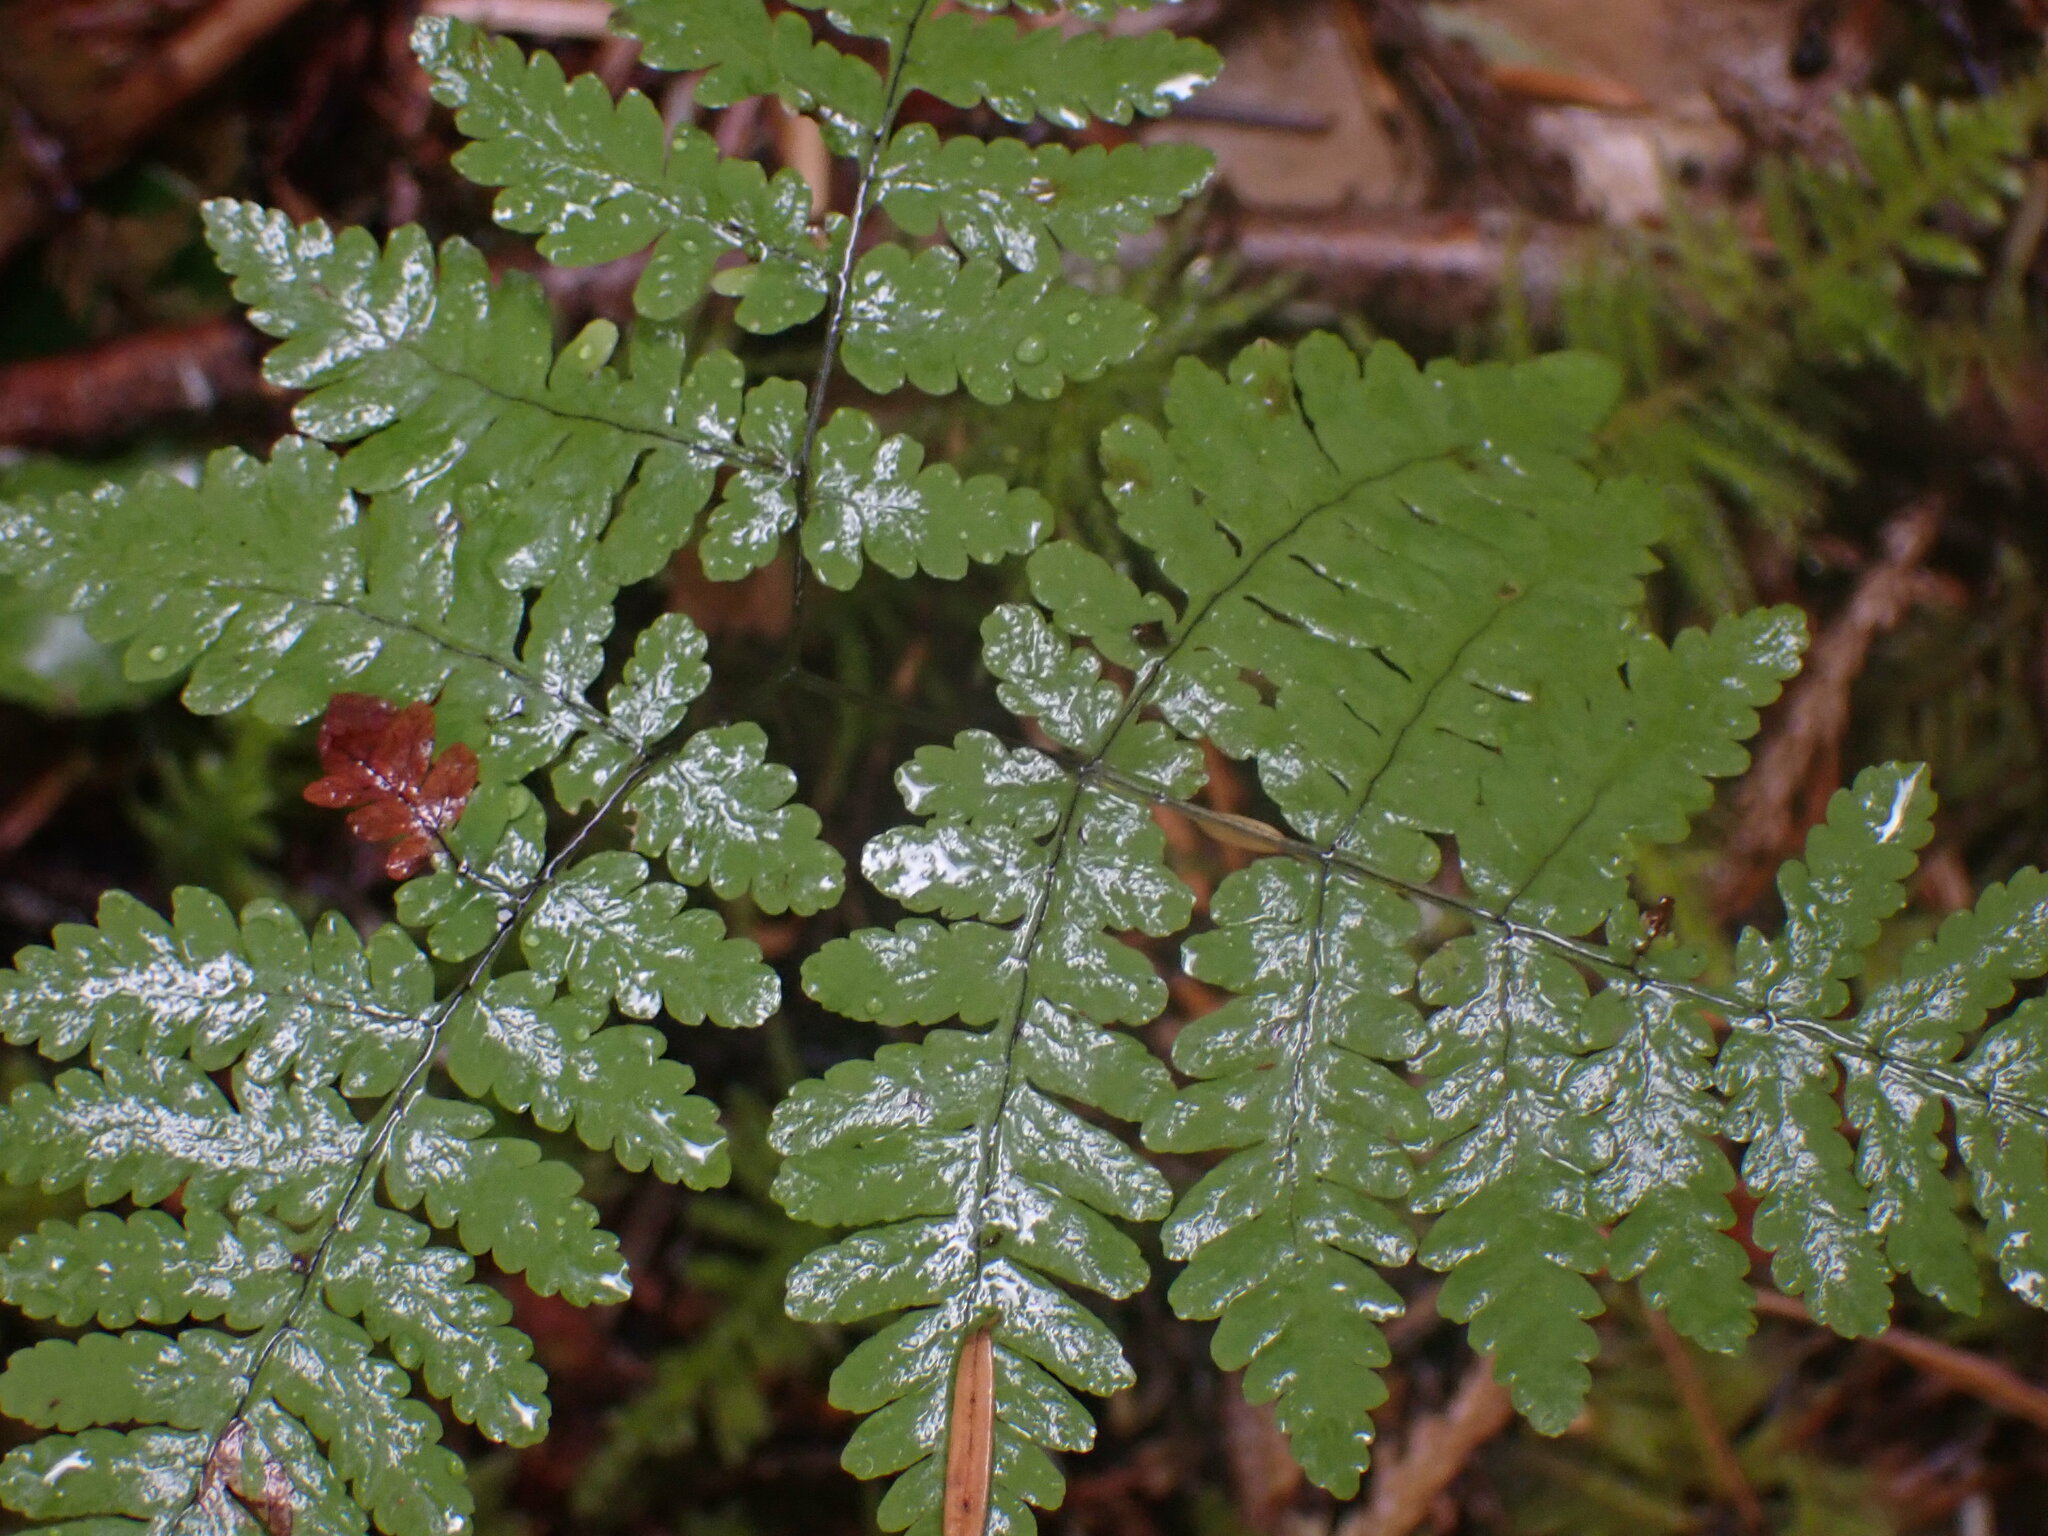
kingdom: Plantae
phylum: Tracheophyta
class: Polypodiopsida
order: Polypodiales
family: Cystopteridaceae
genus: Gymnocarpium
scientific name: Gymnocarpium disjunctum
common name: Western oak fern
